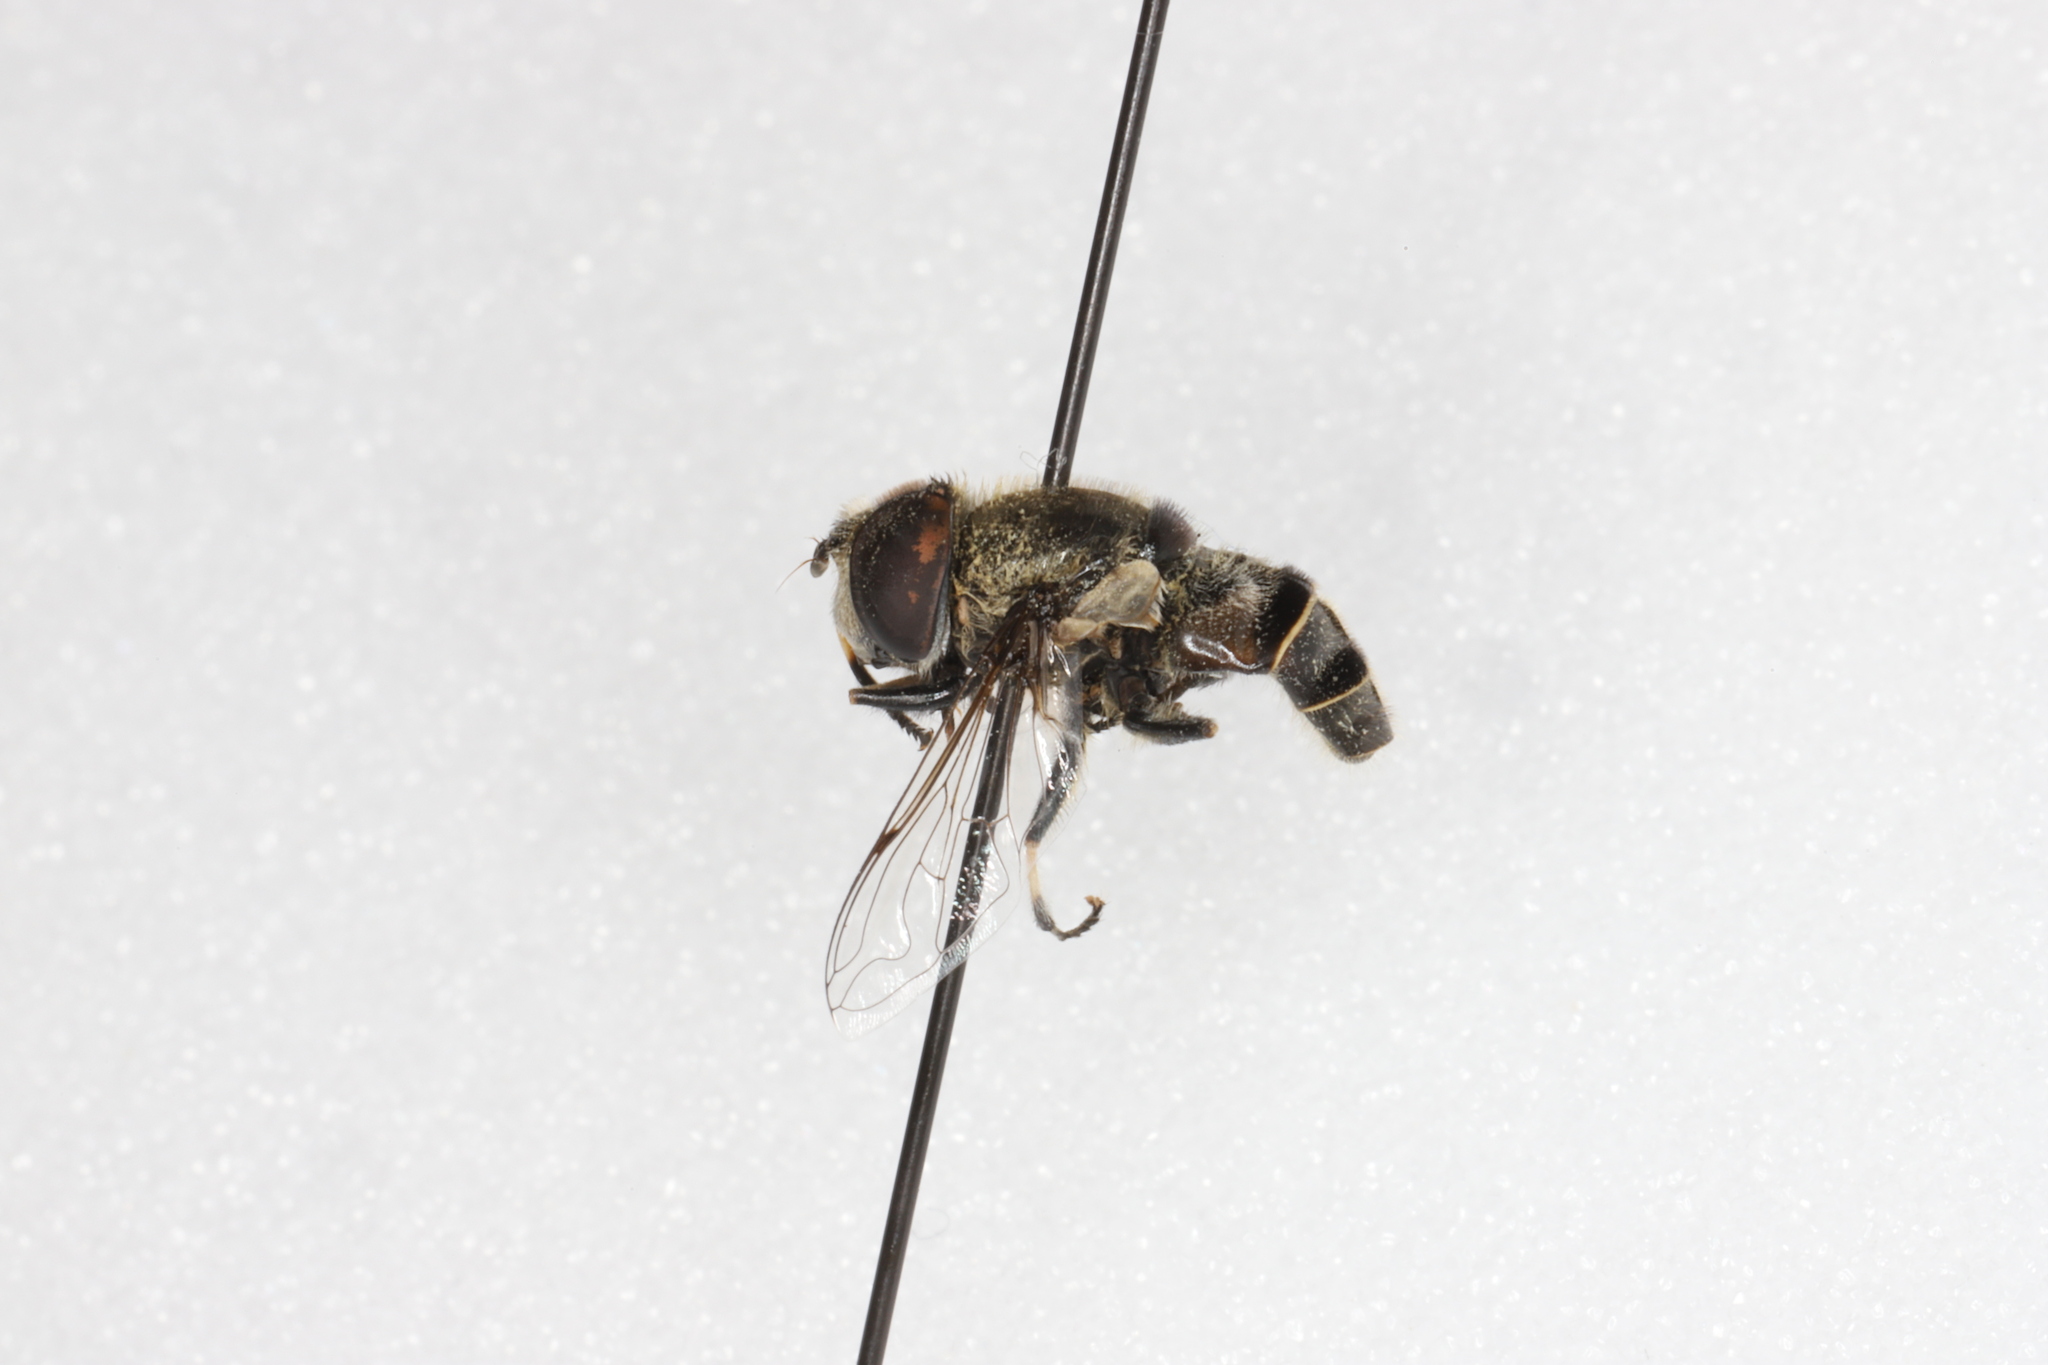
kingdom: Animalia
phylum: Arthropoda
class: Insecta
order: Diptera
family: Syrphidae
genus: Eristalis
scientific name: Eristalis dimidiata
